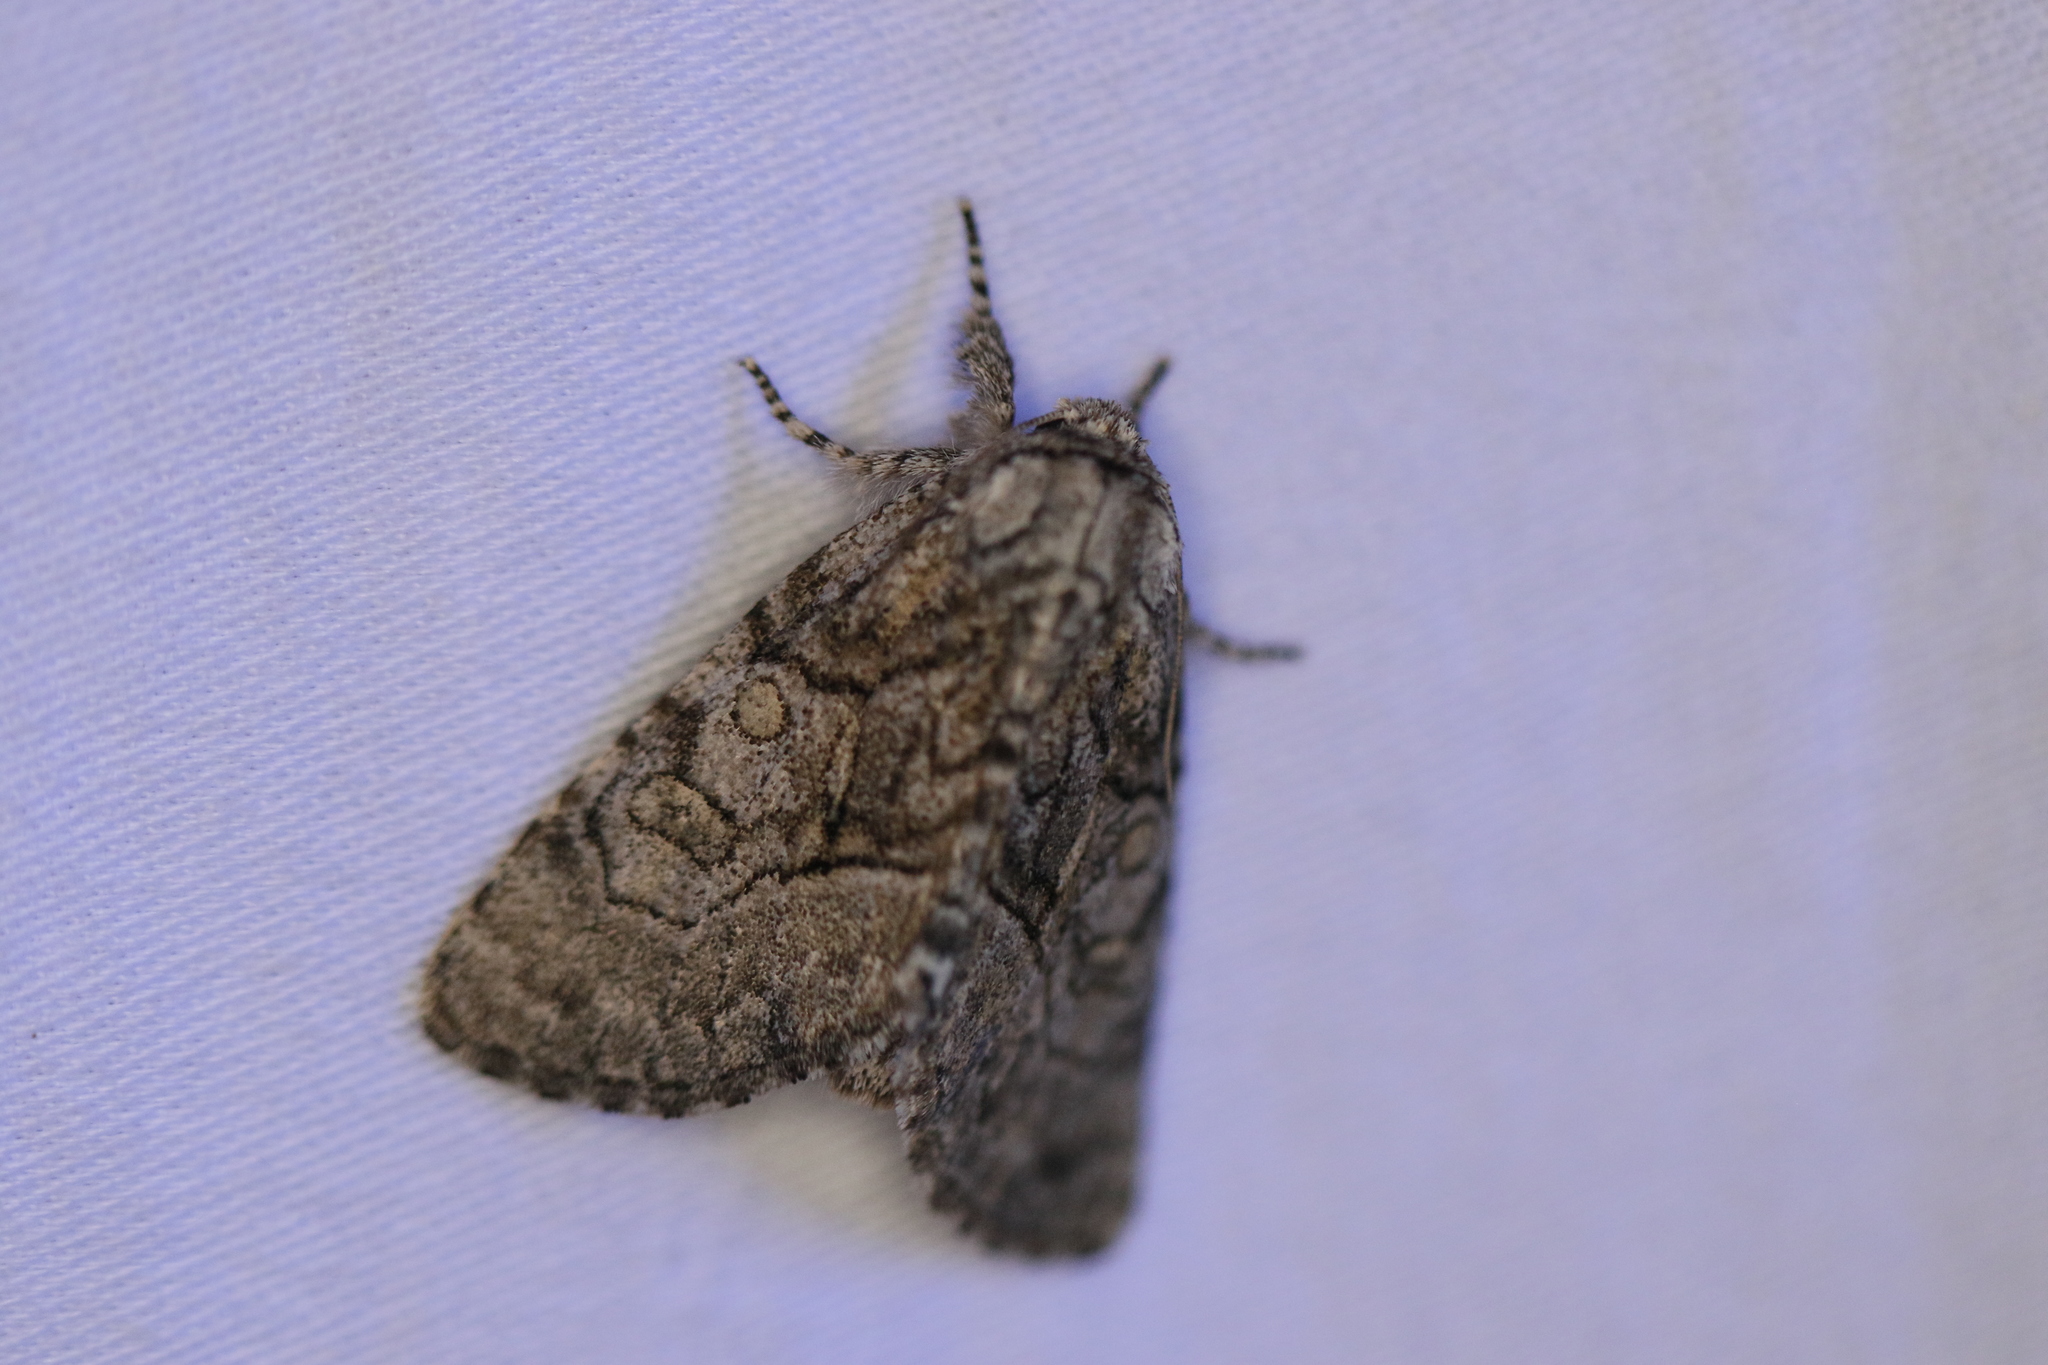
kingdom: Animalia
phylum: Arthropoda
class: Insecta
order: Lepidoptera
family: Noctuidae
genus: Raphia
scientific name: Raphia frater
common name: Brother
